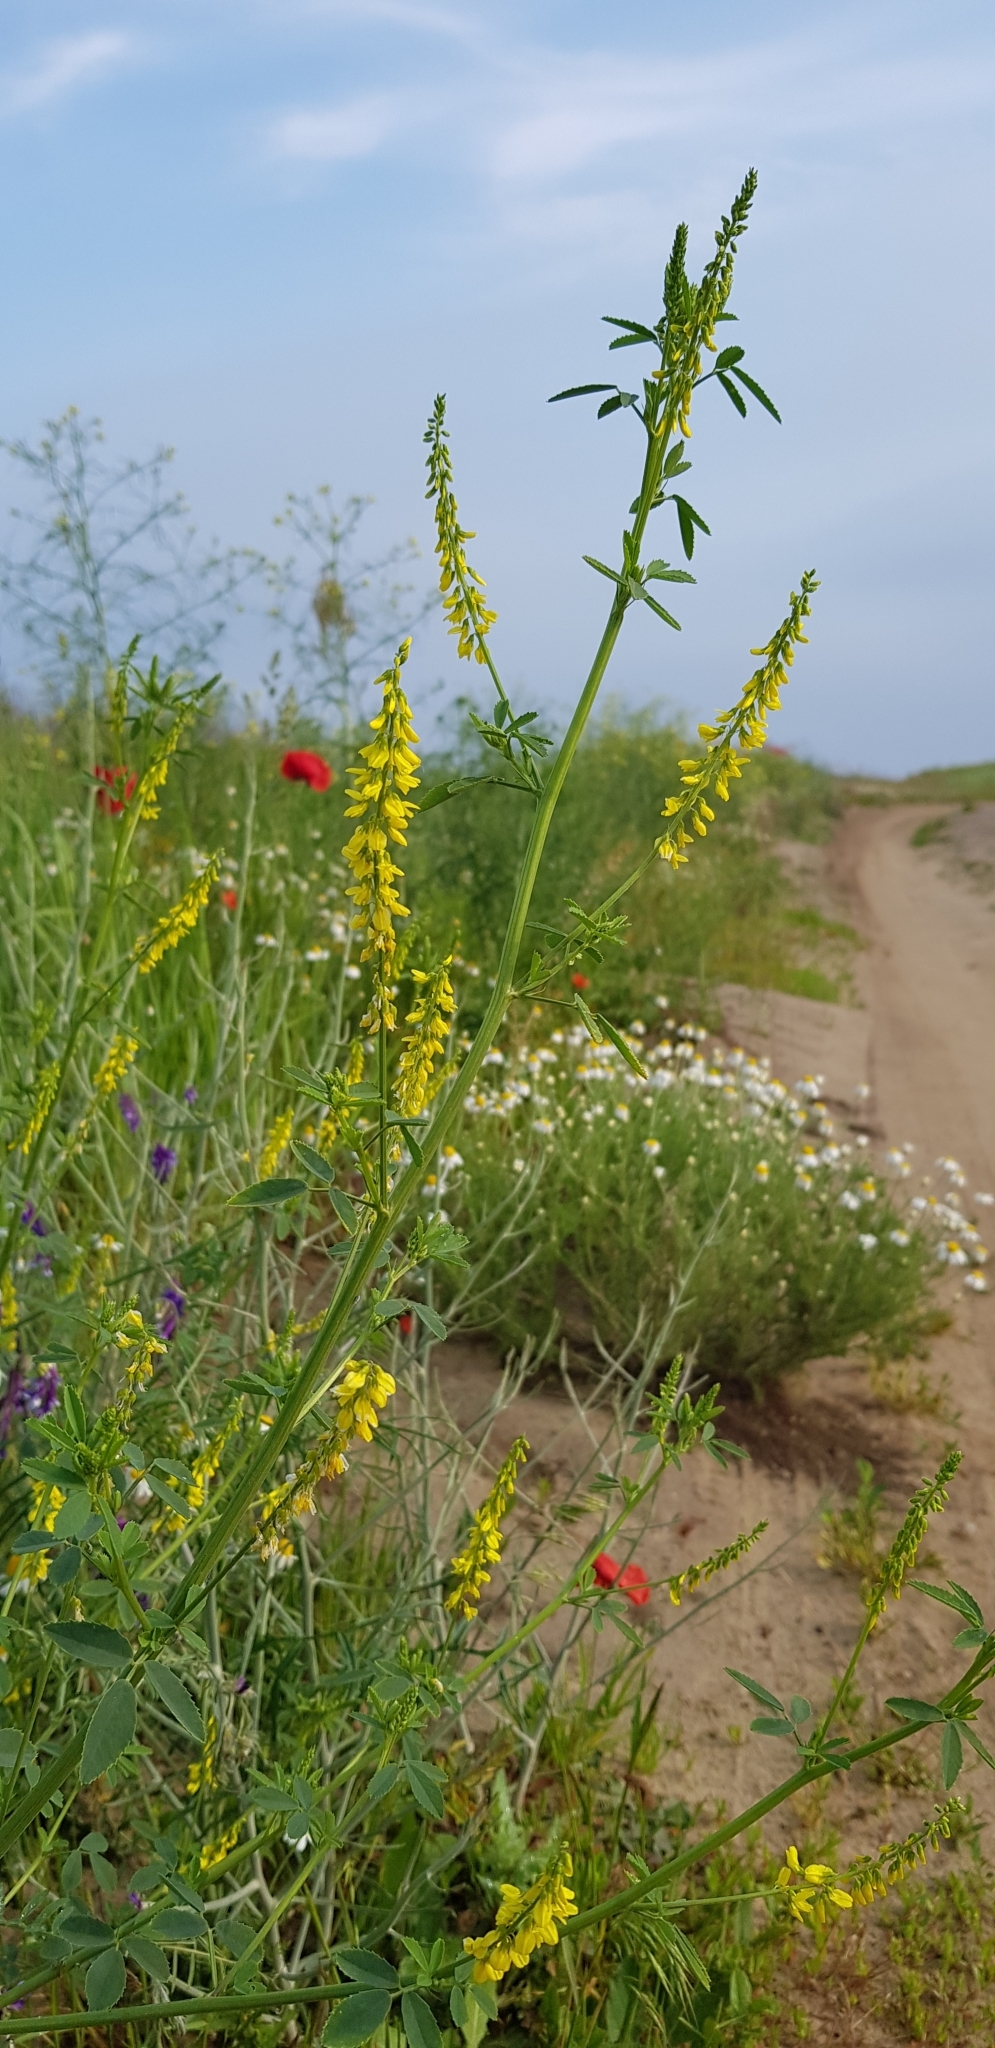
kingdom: Plantae
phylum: Tracheophyta
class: Magnoliopsida
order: Fabales
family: Fabaceae
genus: Melilotus
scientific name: Melilotus officinalis
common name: Sweetclover
